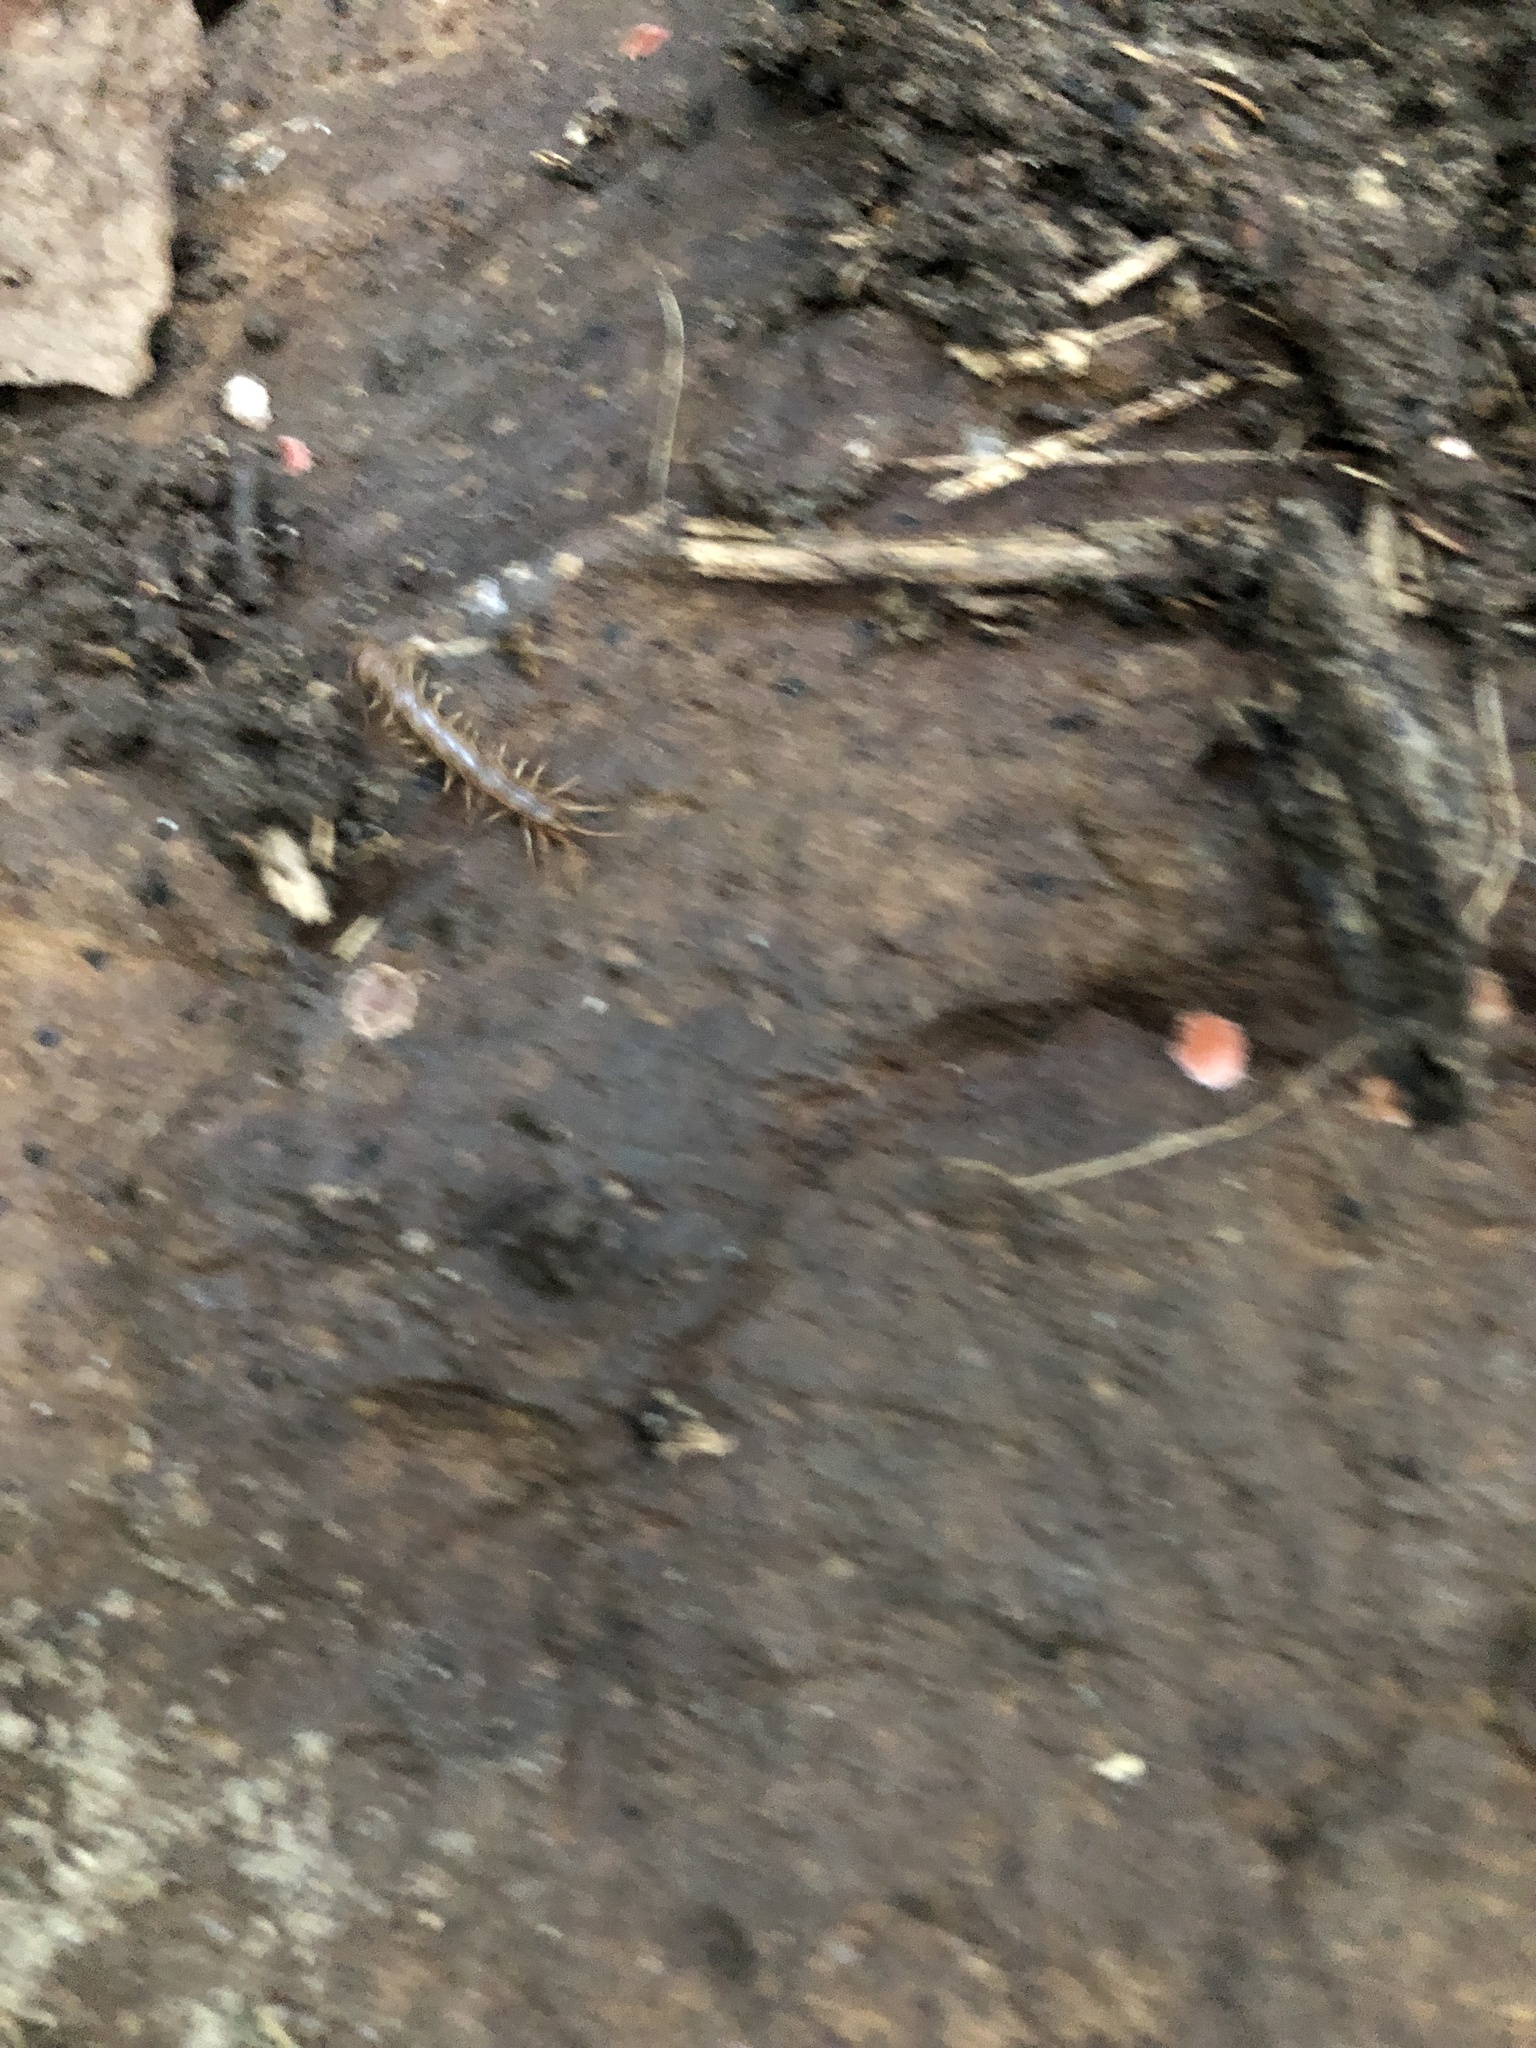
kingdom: Animalia
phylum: Arthropoda
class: Chilopoda
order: Lithobiomorpha
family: Lithobiidae
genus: Lithobius
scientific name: Lithobius forficatus
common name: Centipede
